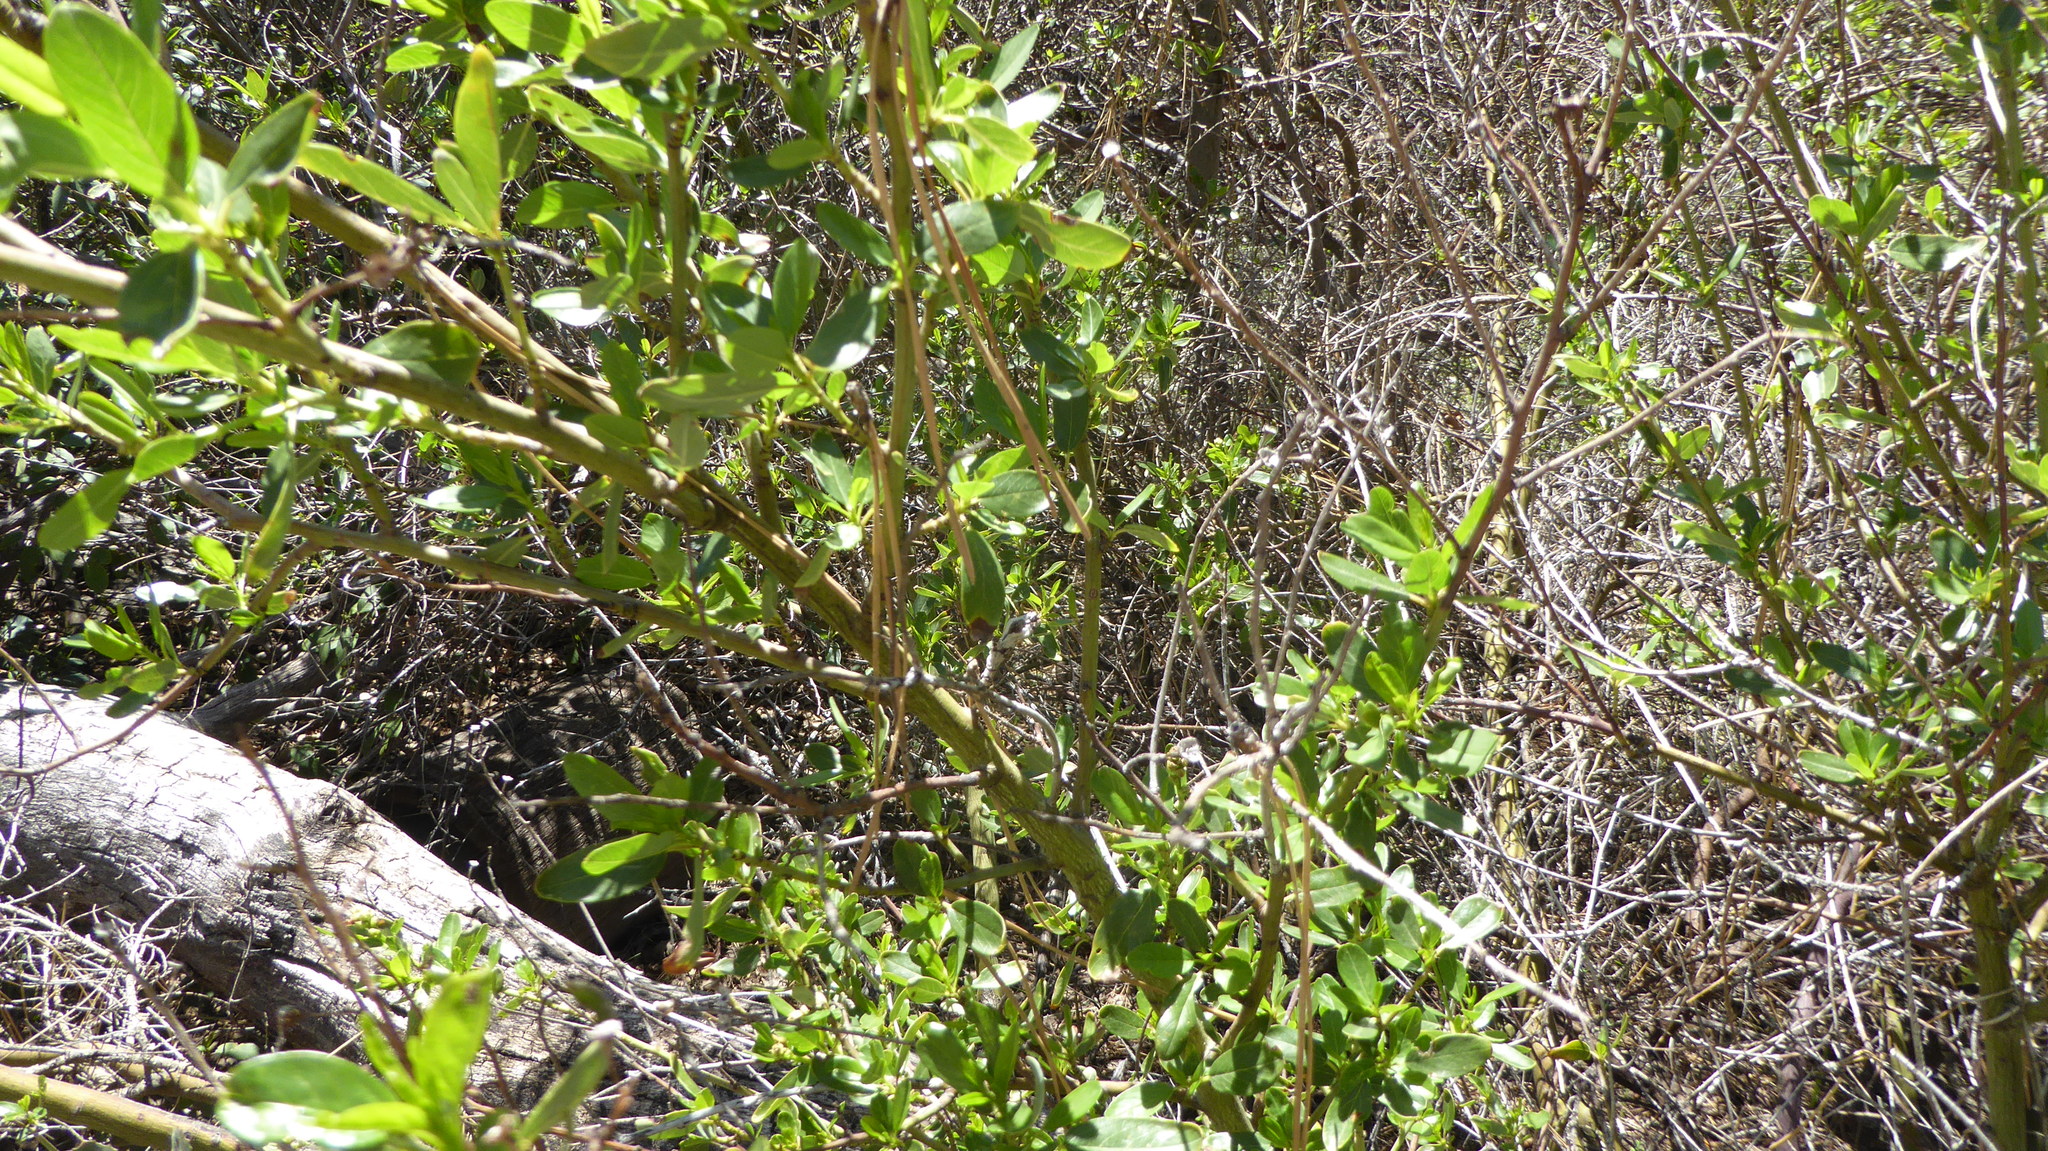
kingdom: Plantae
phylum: Tracheophyta
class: Magnoliopsida
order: Rosales
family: Rhamnaceae
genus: Ceanothus
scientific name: Ceanothus palmeri
